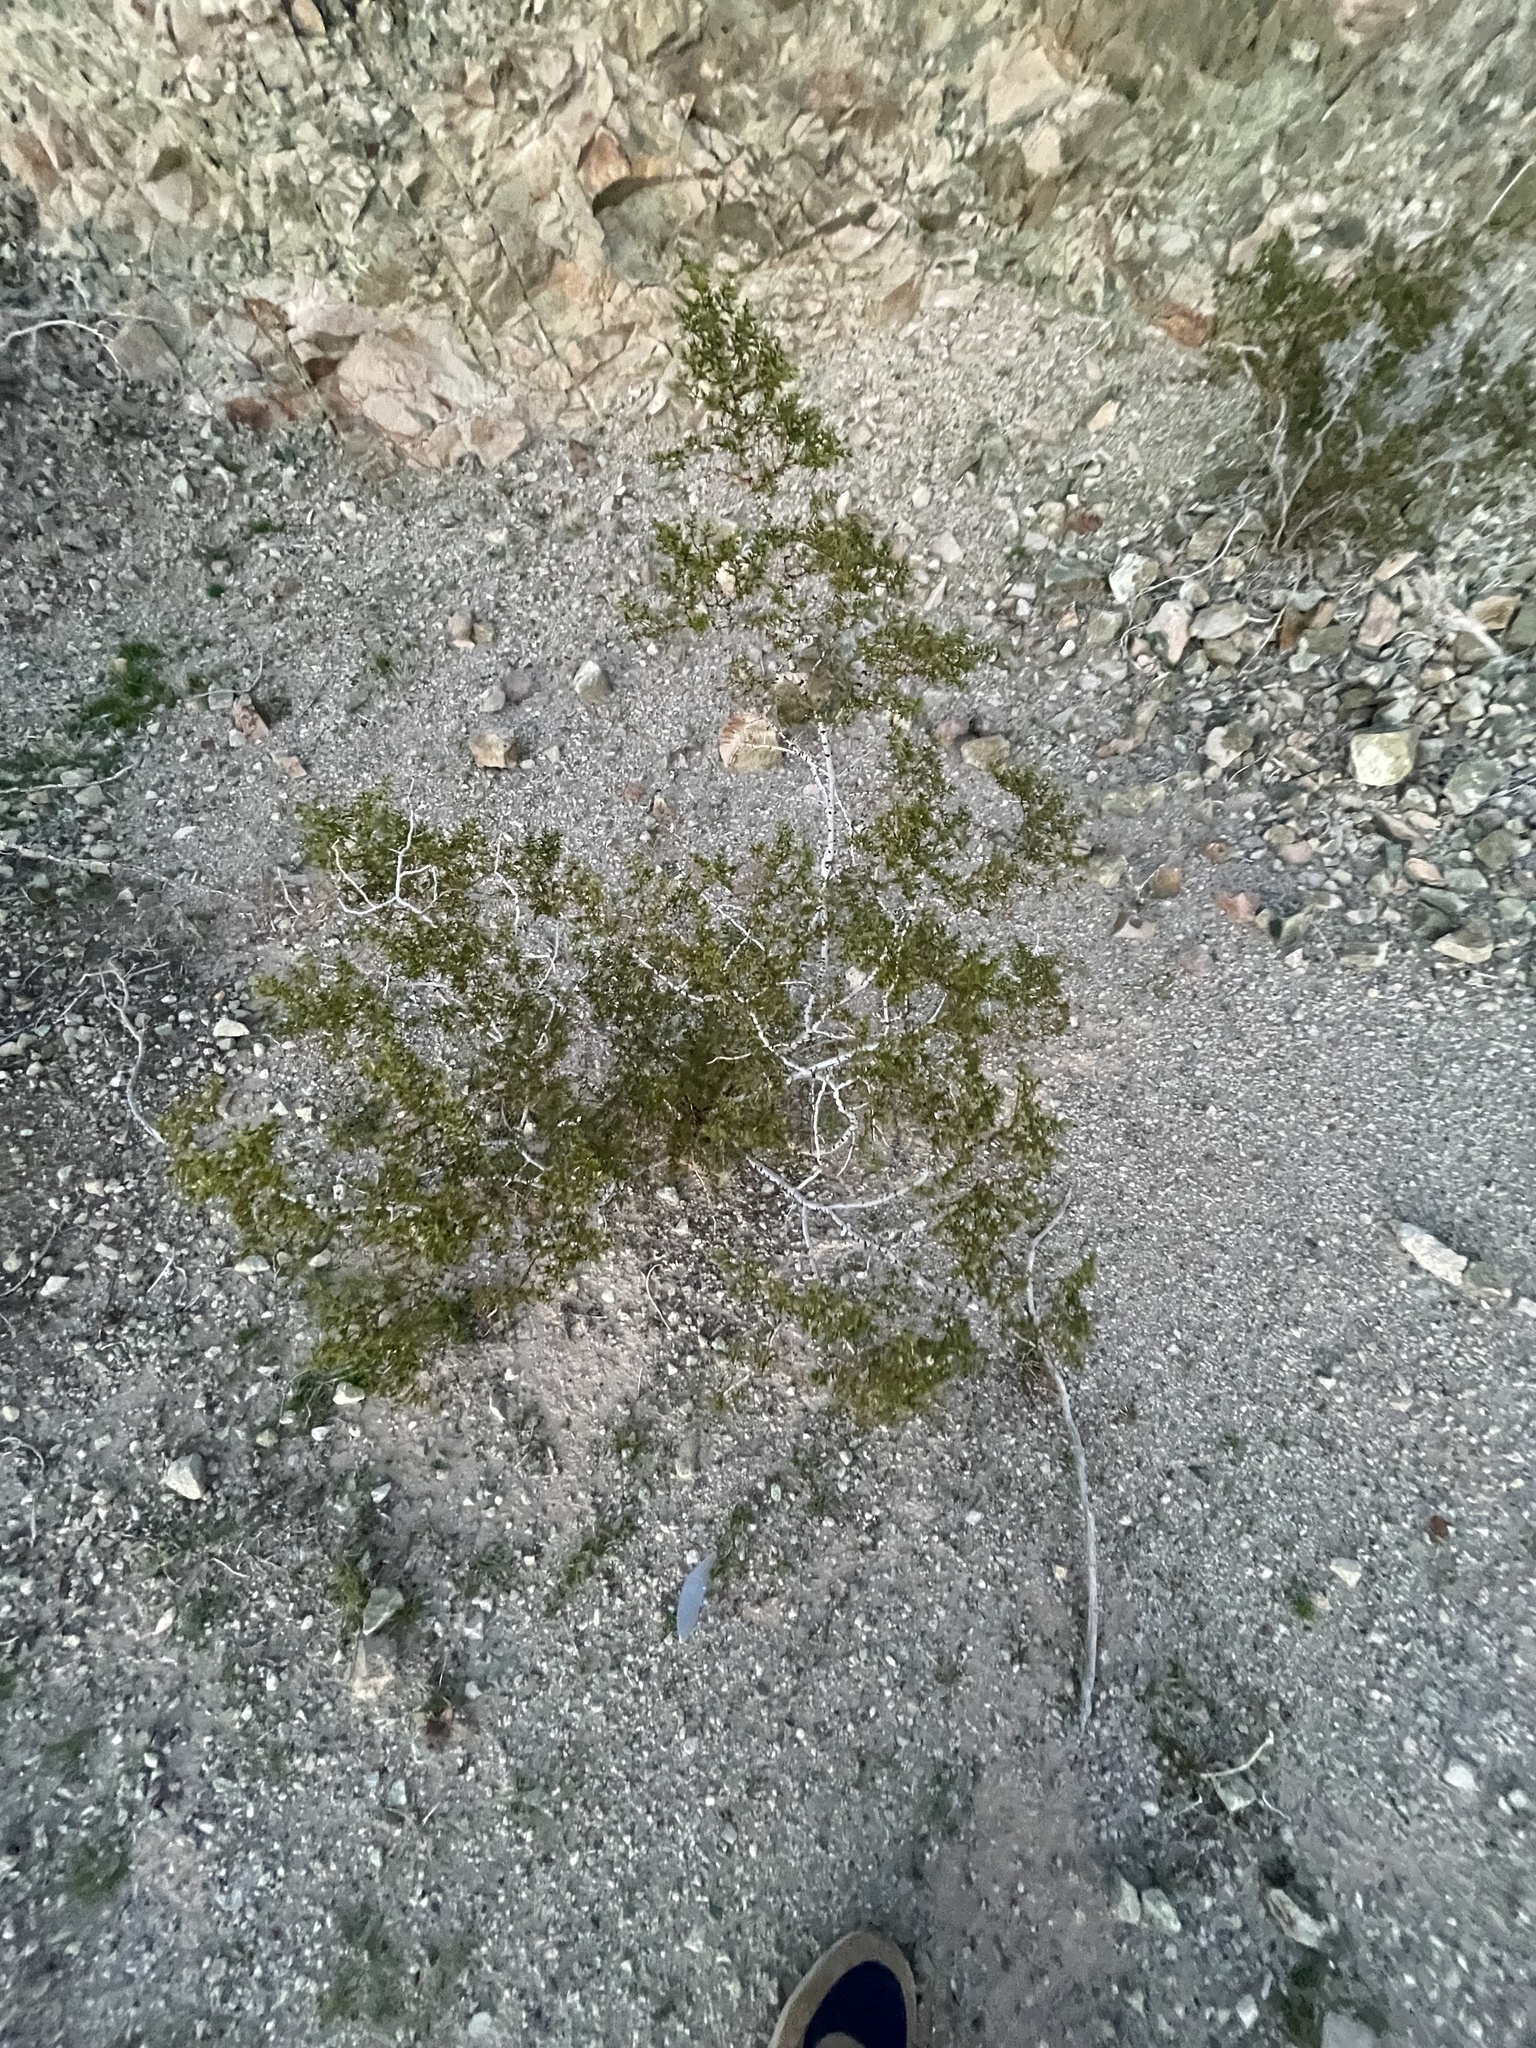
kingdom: Plantae
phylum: Tracheophyta
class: Magnoliopsida
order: Zygophyllales
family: Zygophyllaceae
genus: Larrea
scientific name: Larrea tridentata
